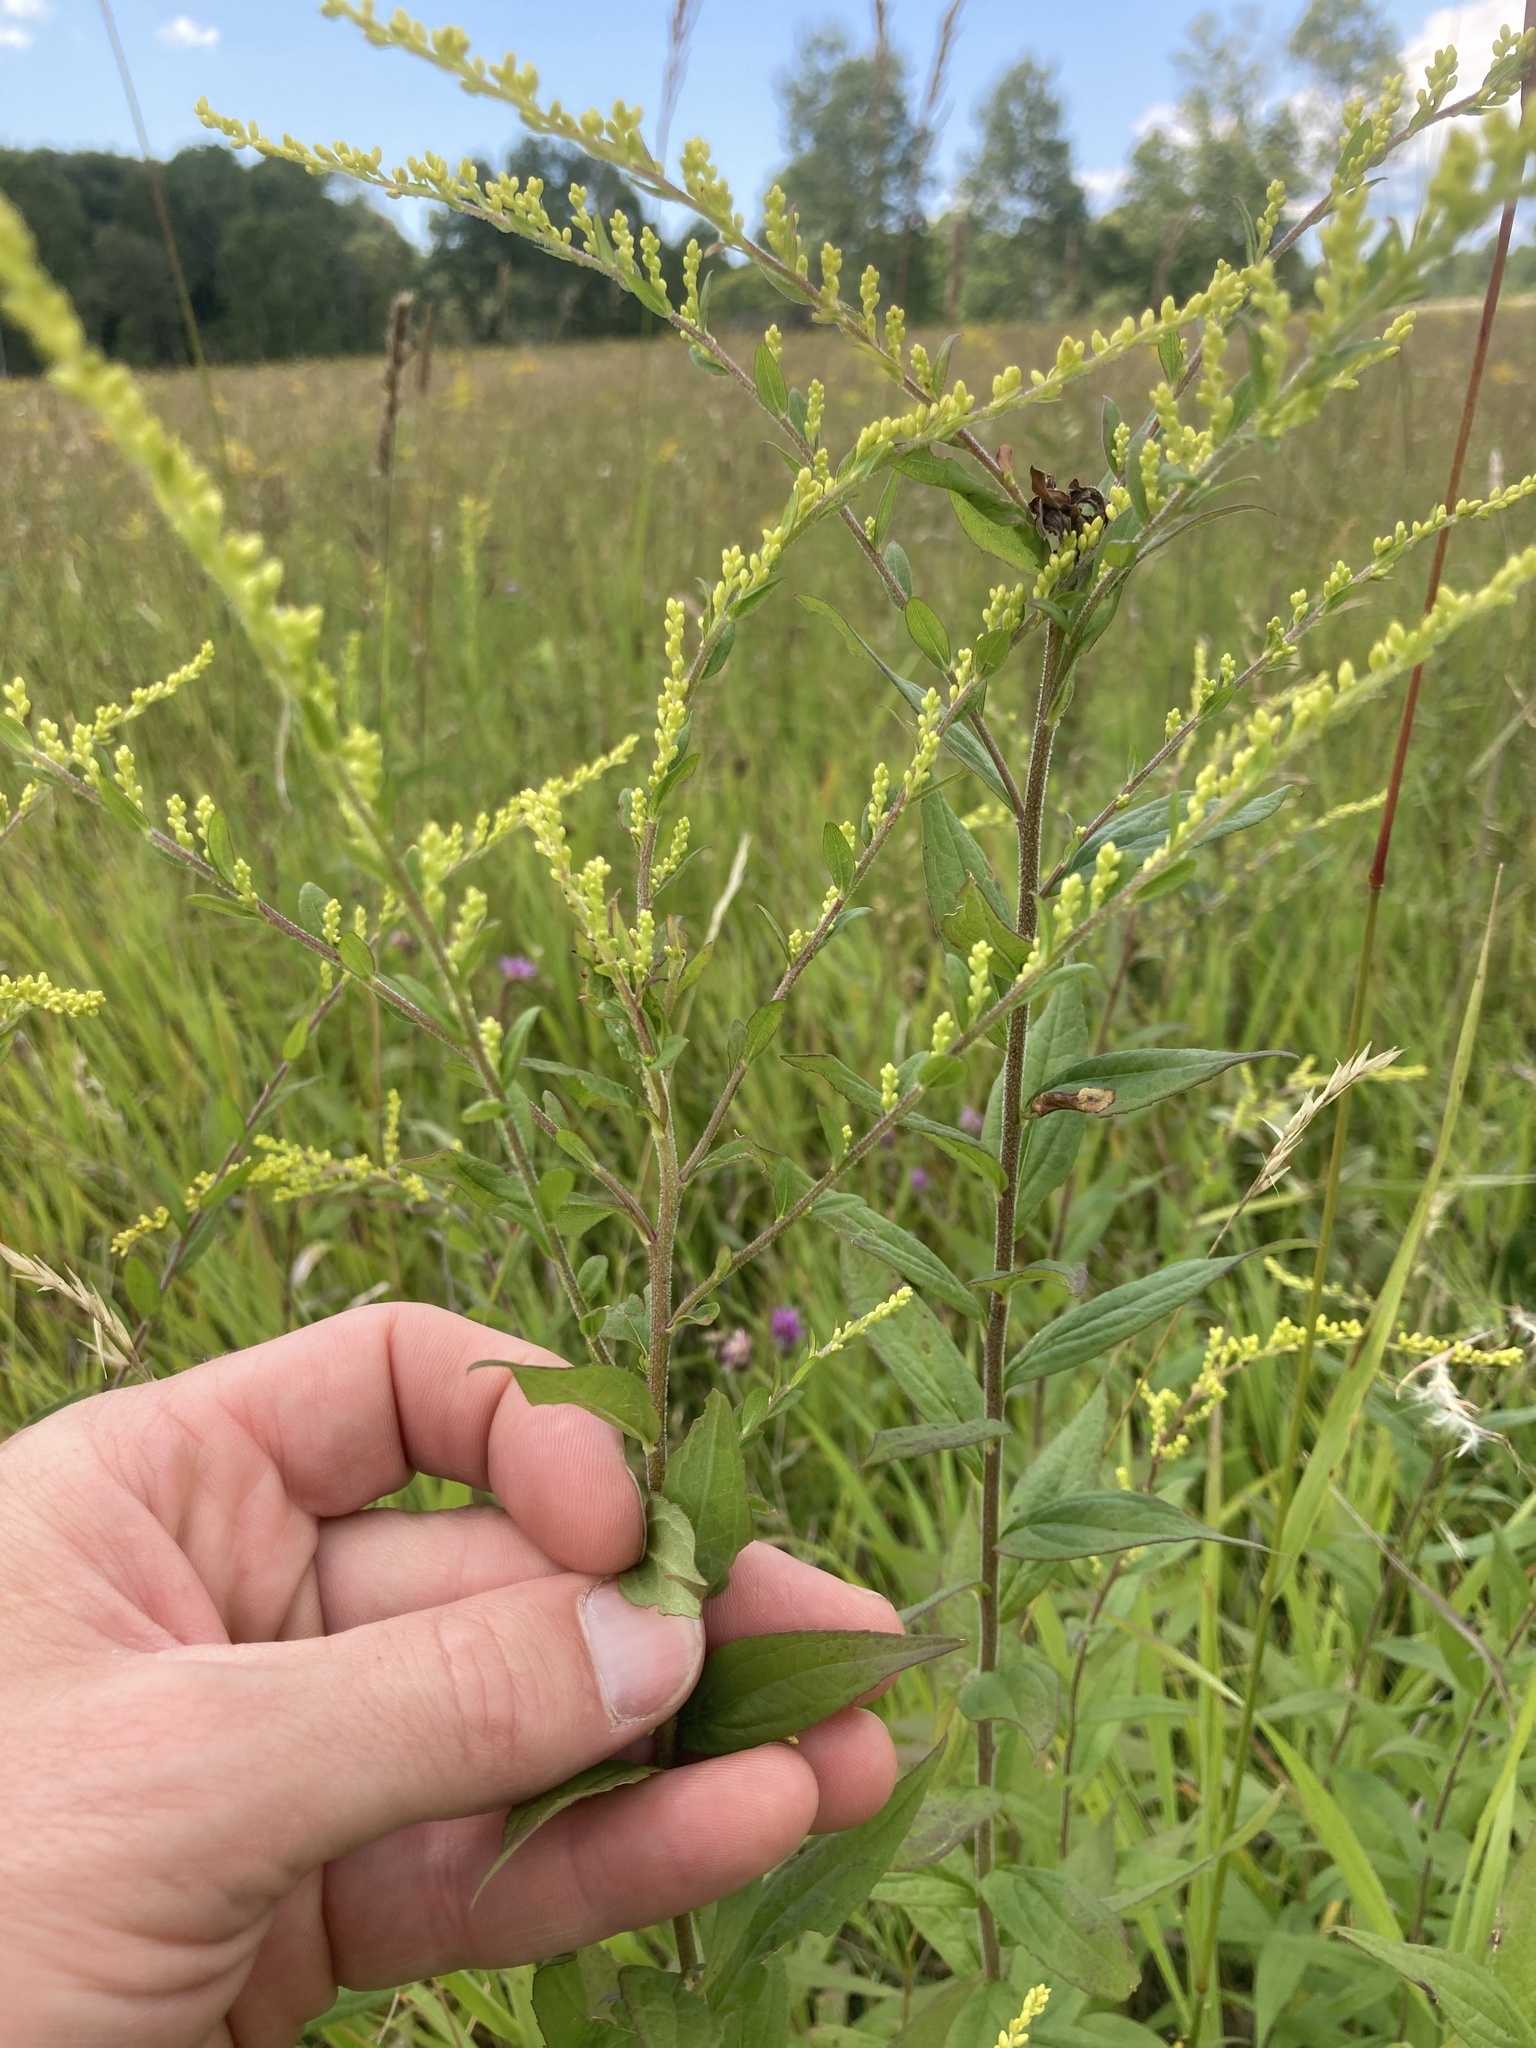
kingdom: Plantae
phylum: Tracheophyta
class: Magnoliopsida
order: Asterales
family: Asteraceae
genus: Solidago
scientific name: Solidago rugosa
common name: Rough-stemmed goldenrod
